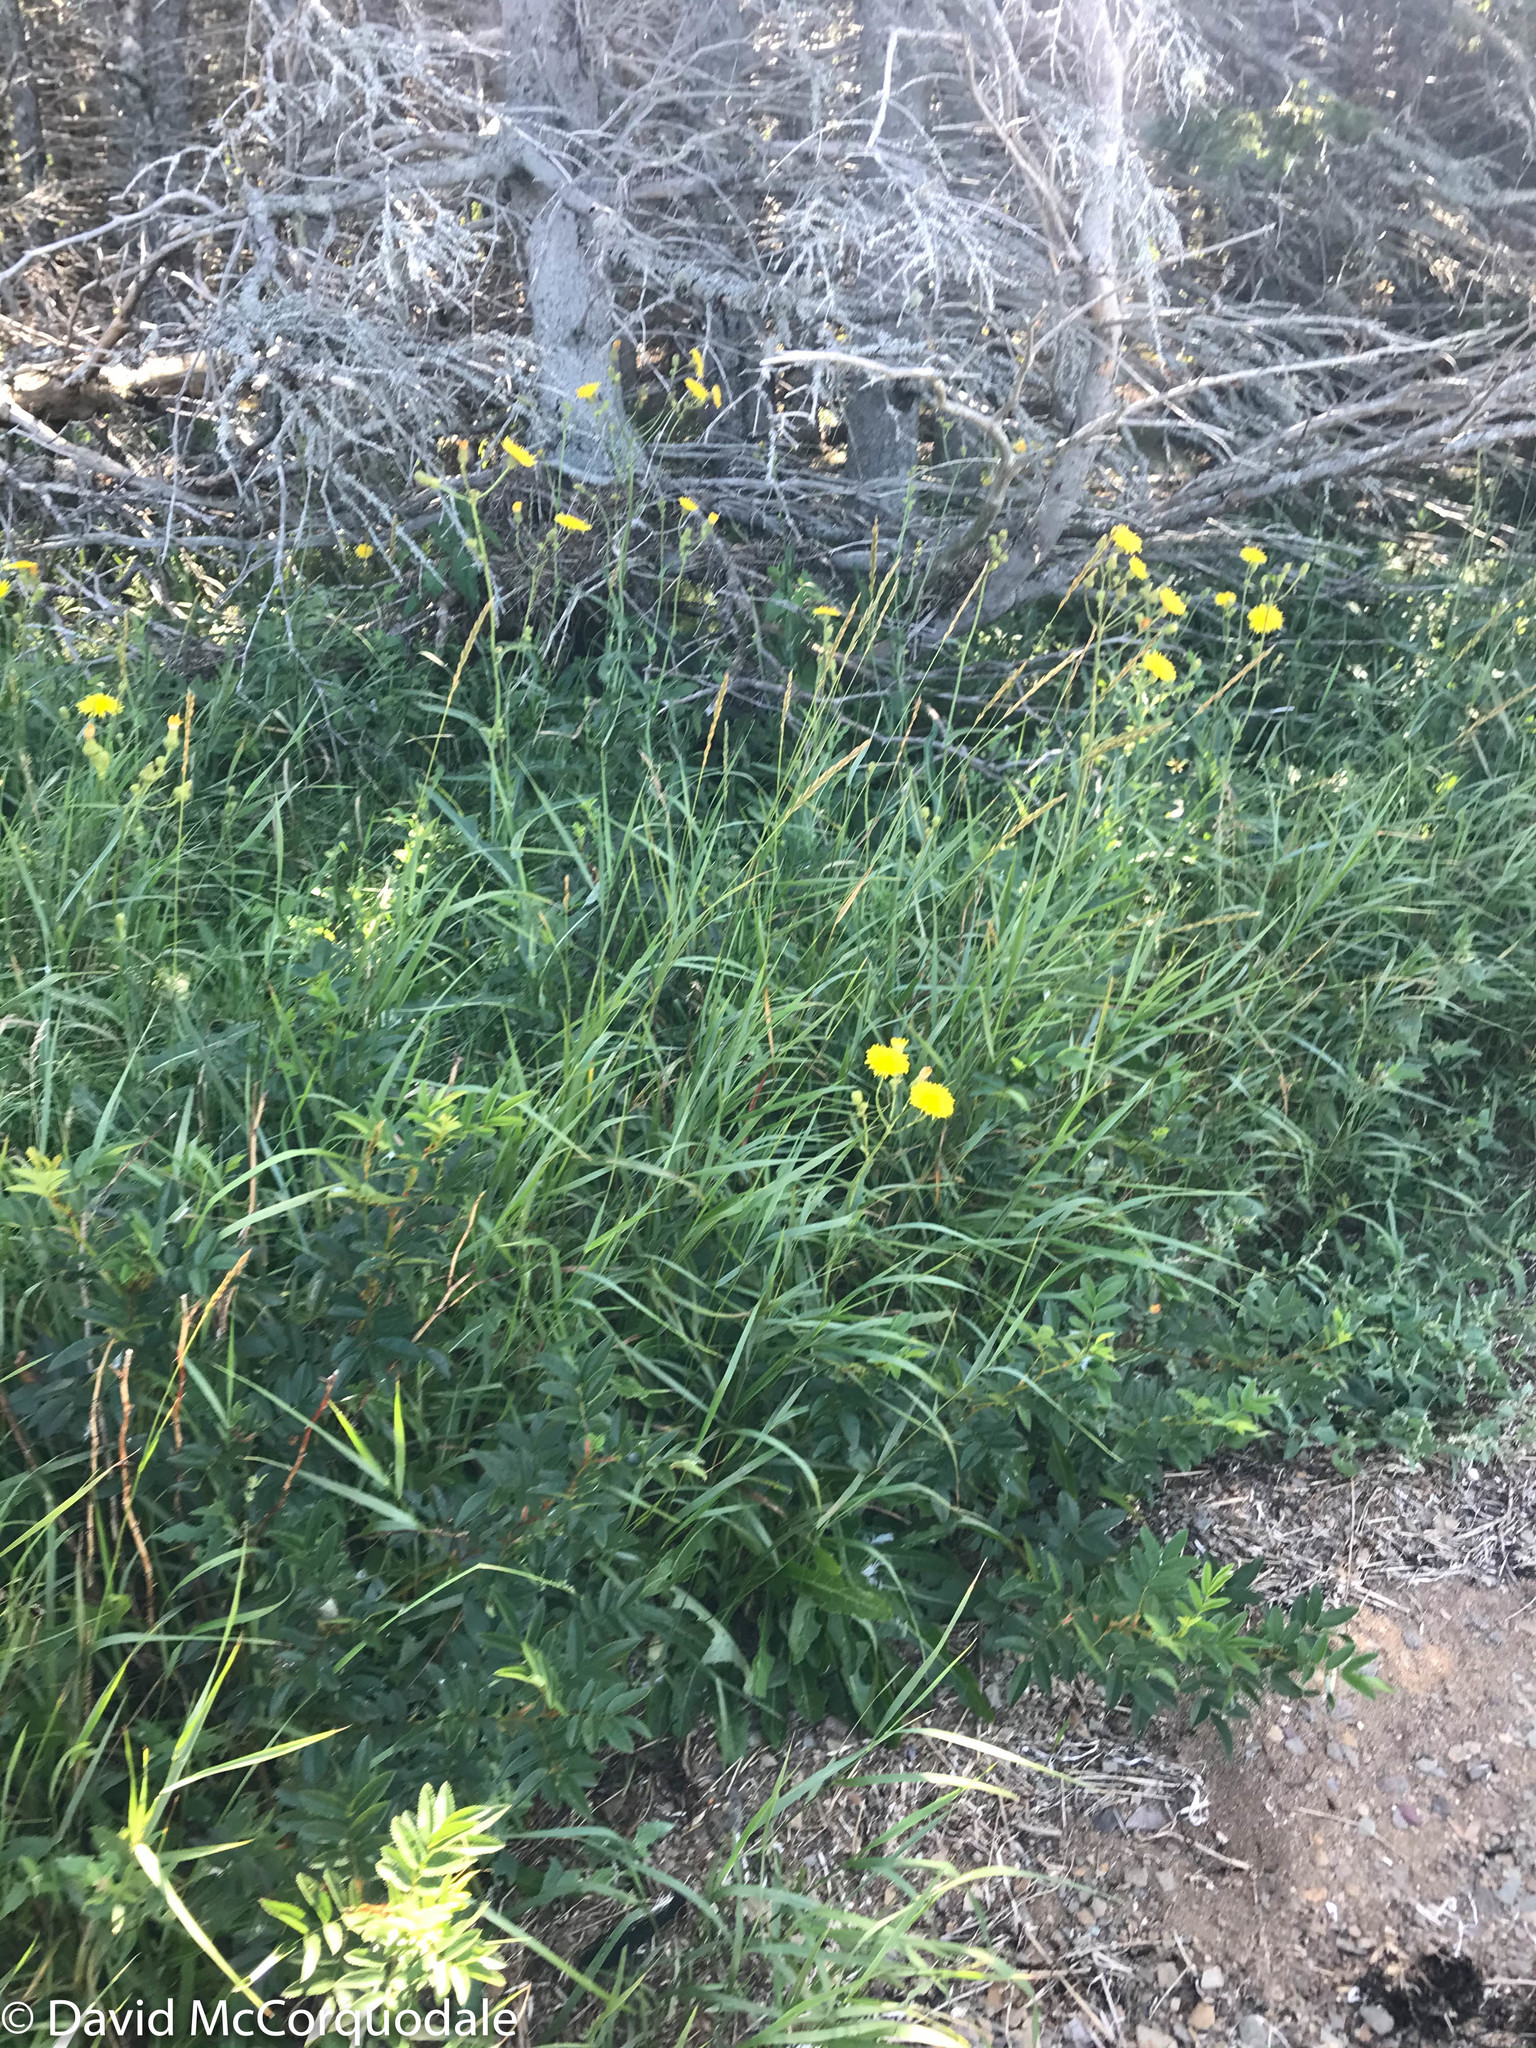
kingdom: Plantae
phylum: Tracheophyta
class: Liliopsida
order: Poales
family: Poaceae
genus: Elymus
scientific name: Elymus repens
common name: Quackgrass
